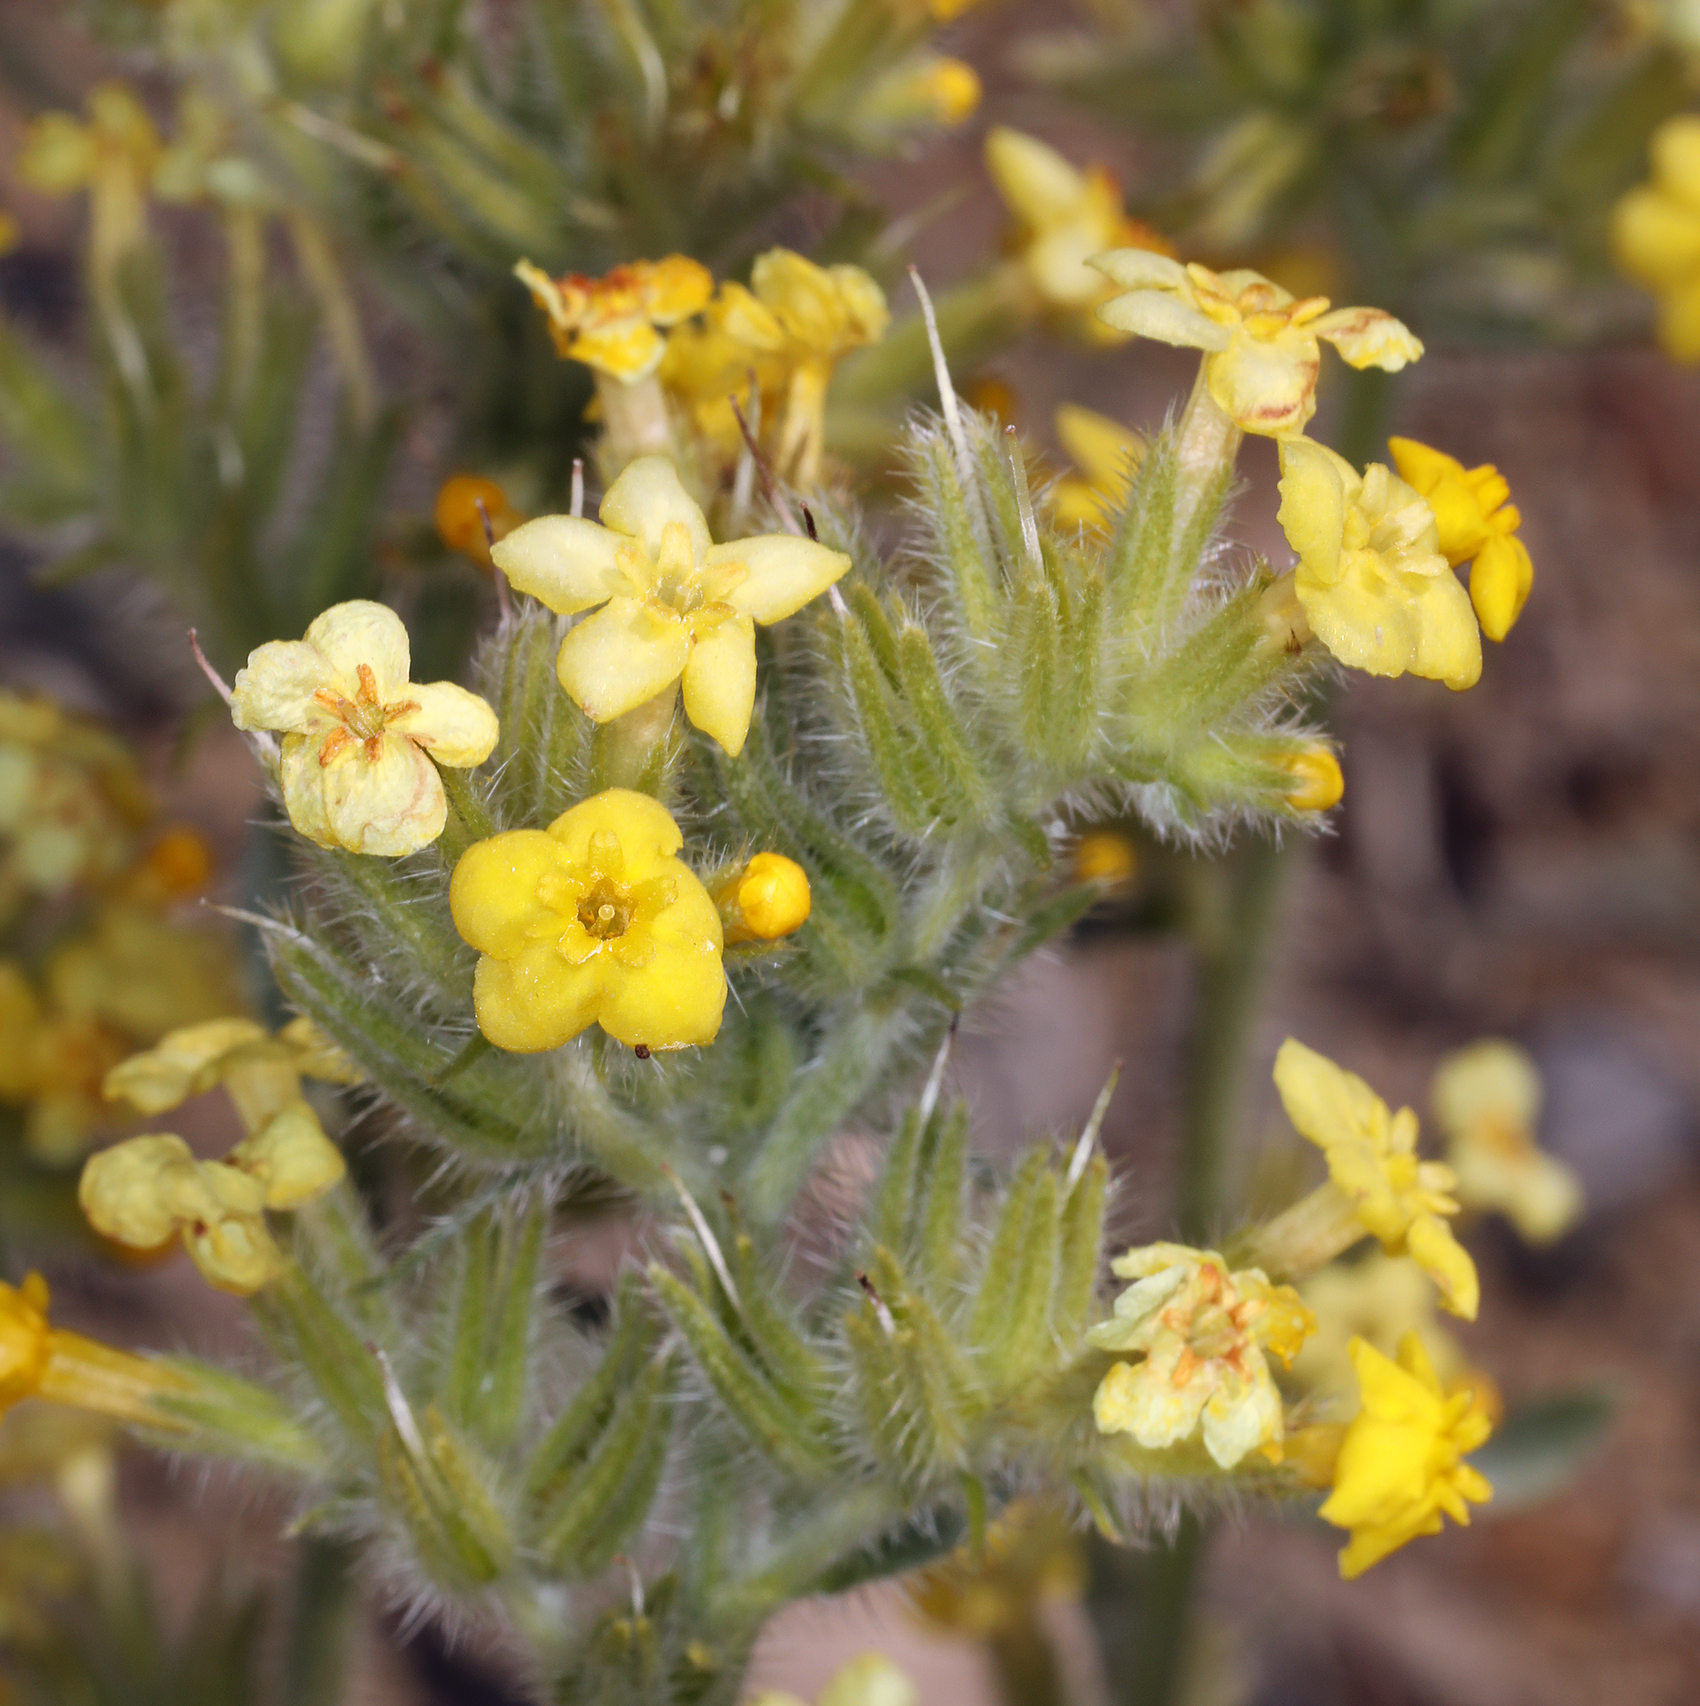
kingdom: Plantae
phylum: Tracheophyta
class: Magnoliopsida
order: Boraginales
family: Boraginaceae
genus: Oreocarya
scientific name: Oreocarya confertiflora
